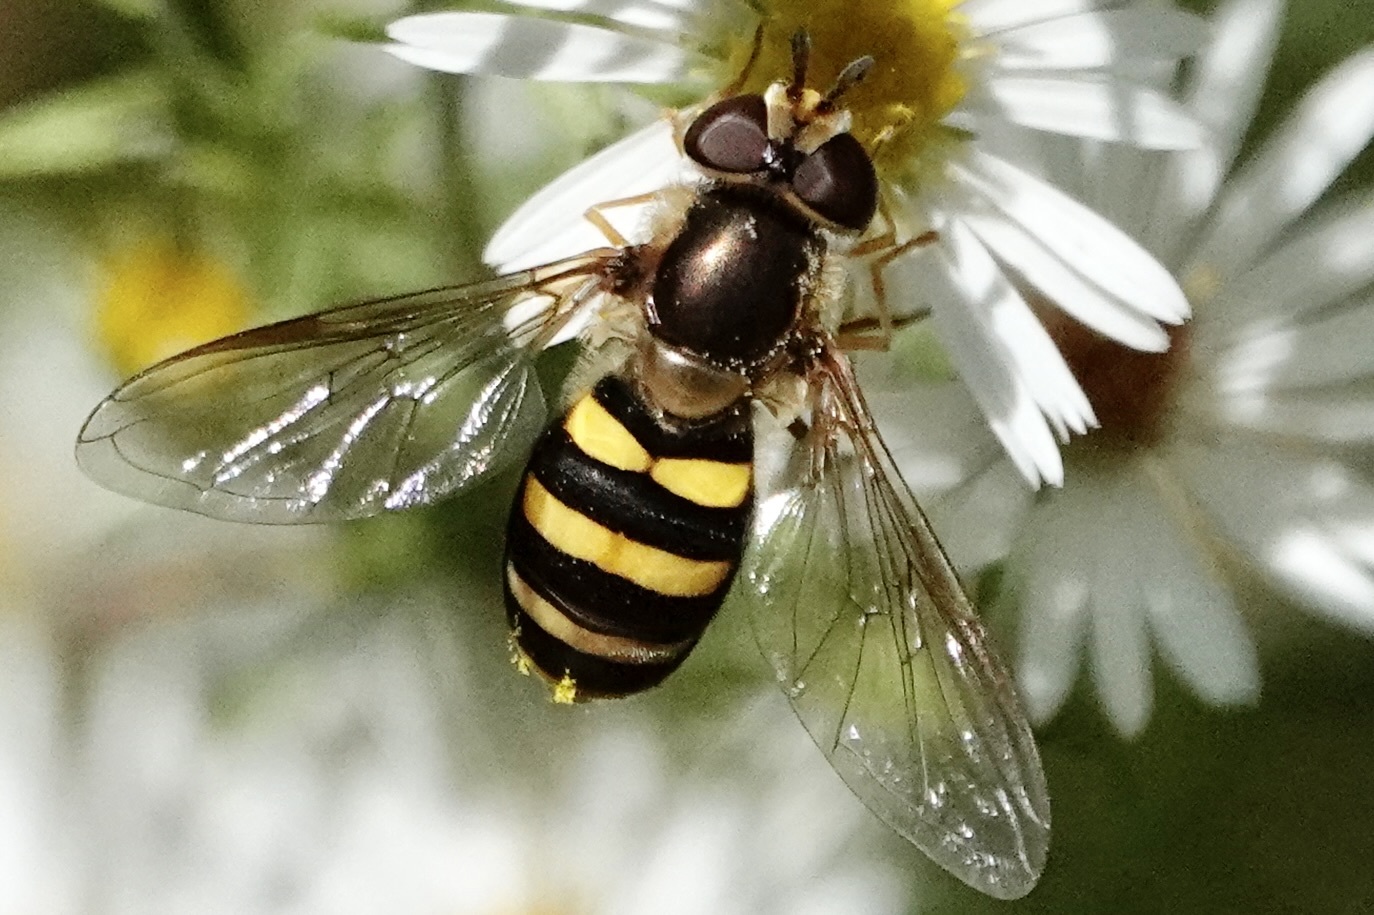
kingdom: Animalia
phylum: Arthropoda
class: Insecta
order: Diptera
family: Syrphidae
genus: Eupeodes
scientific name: Eupeodes
